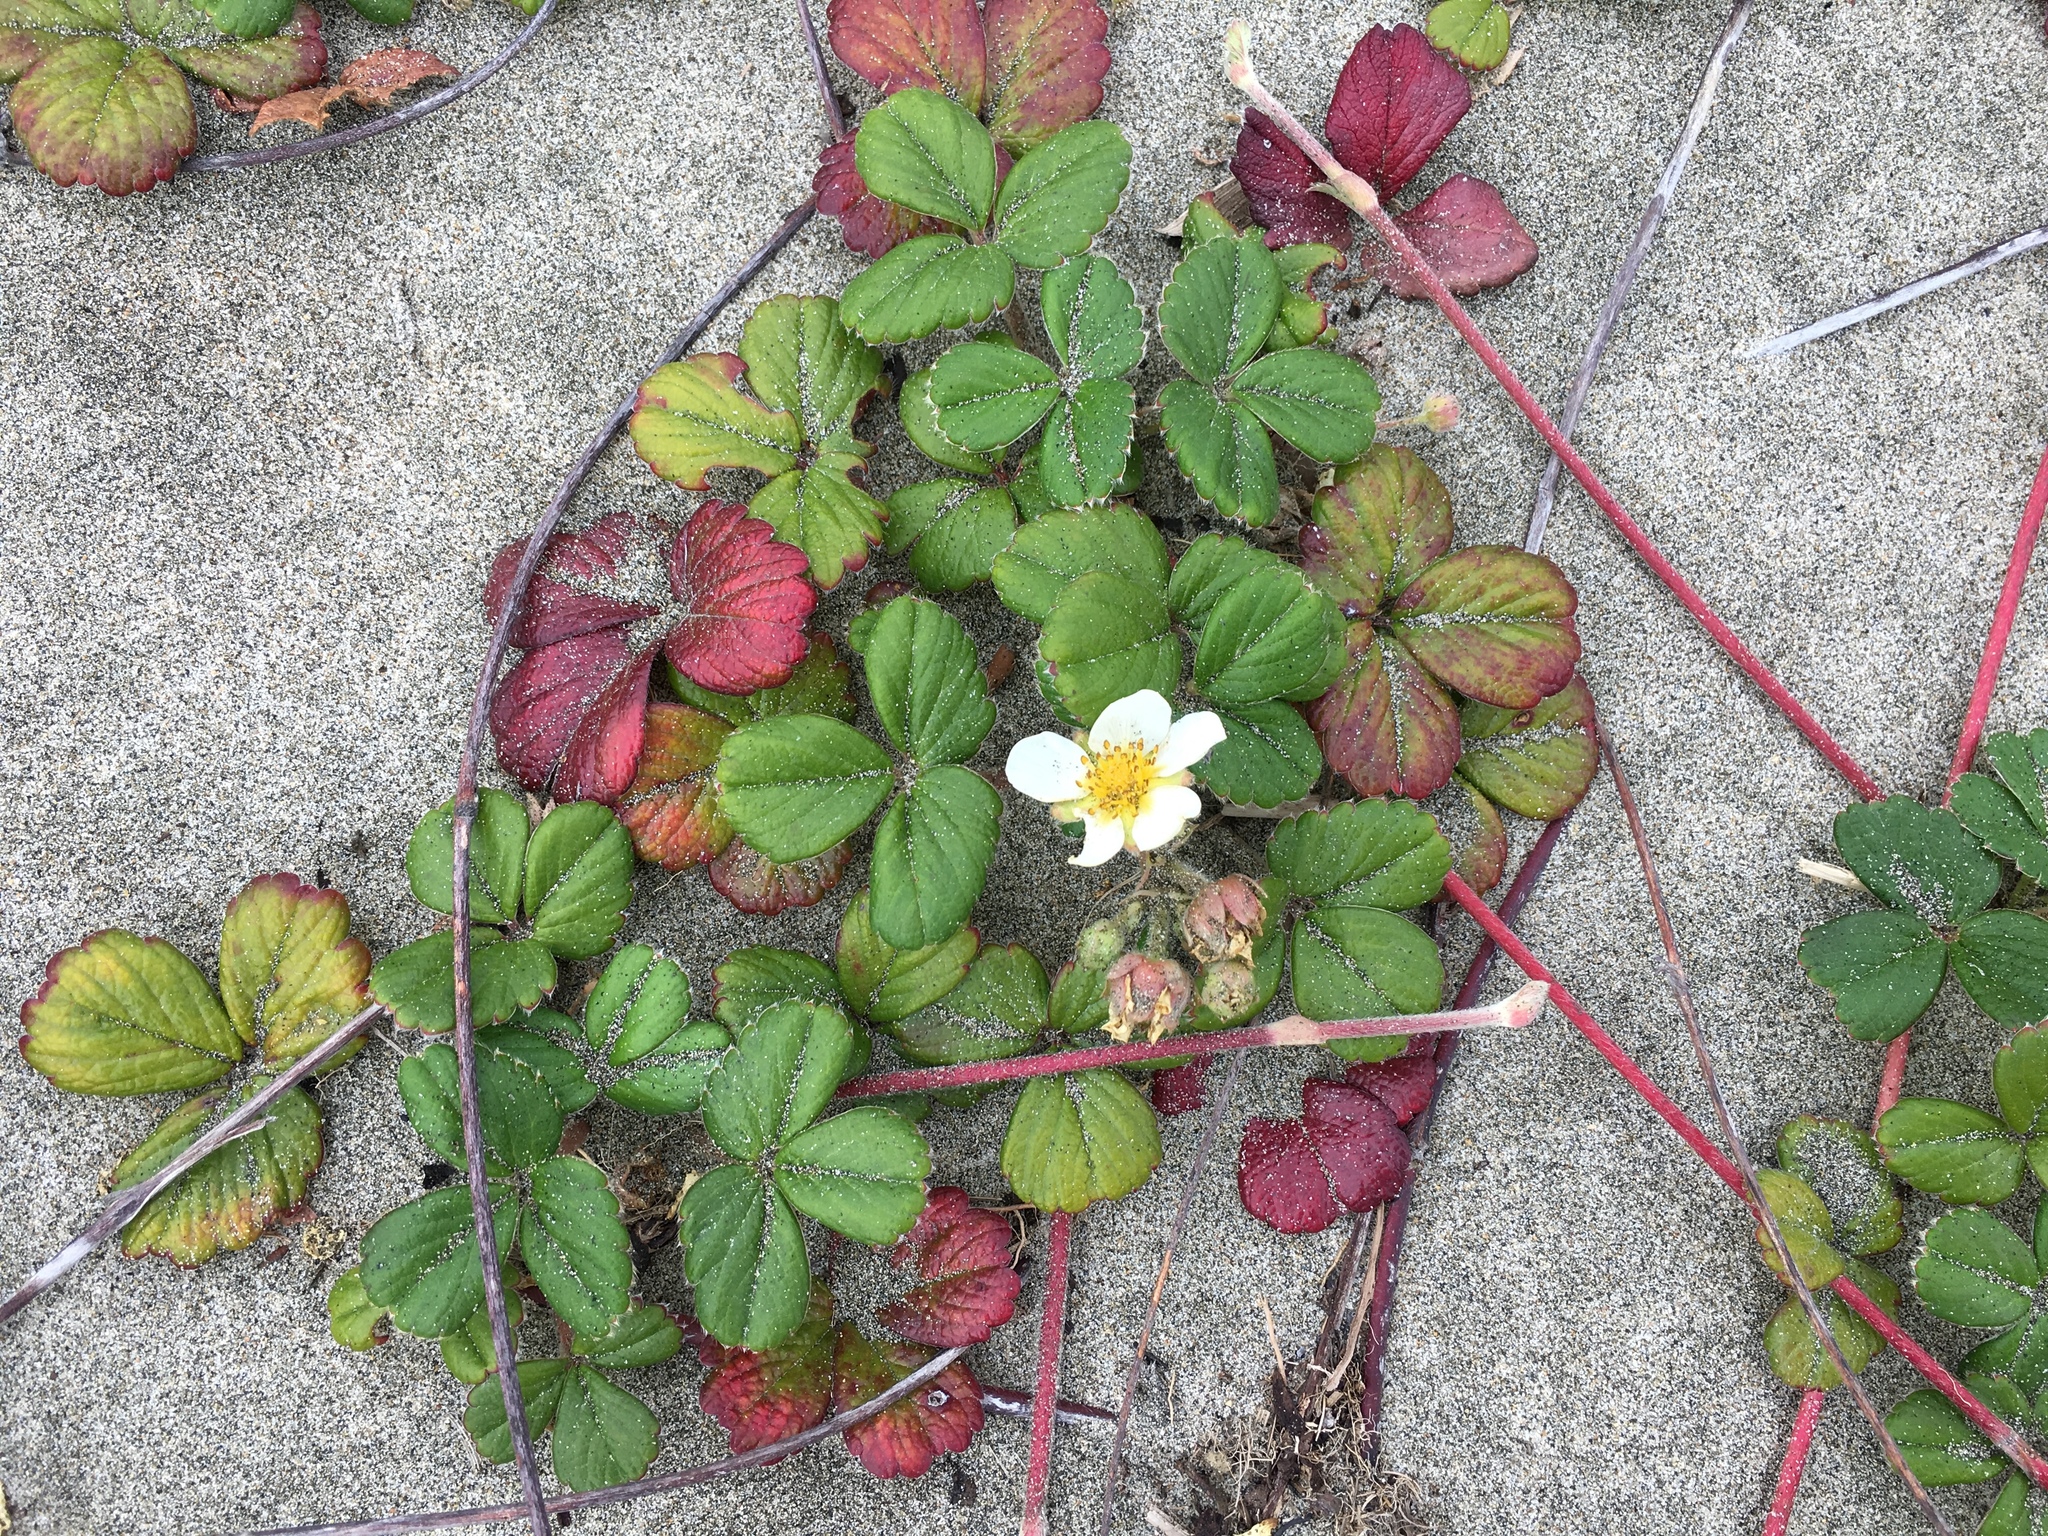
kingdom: Plantae
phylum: Tracheophyta
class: Magnoliopsida
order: Rosales
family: Rosaceae
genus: Fragaria
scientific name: Fragaria chiloensis
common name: Beach strawberry
